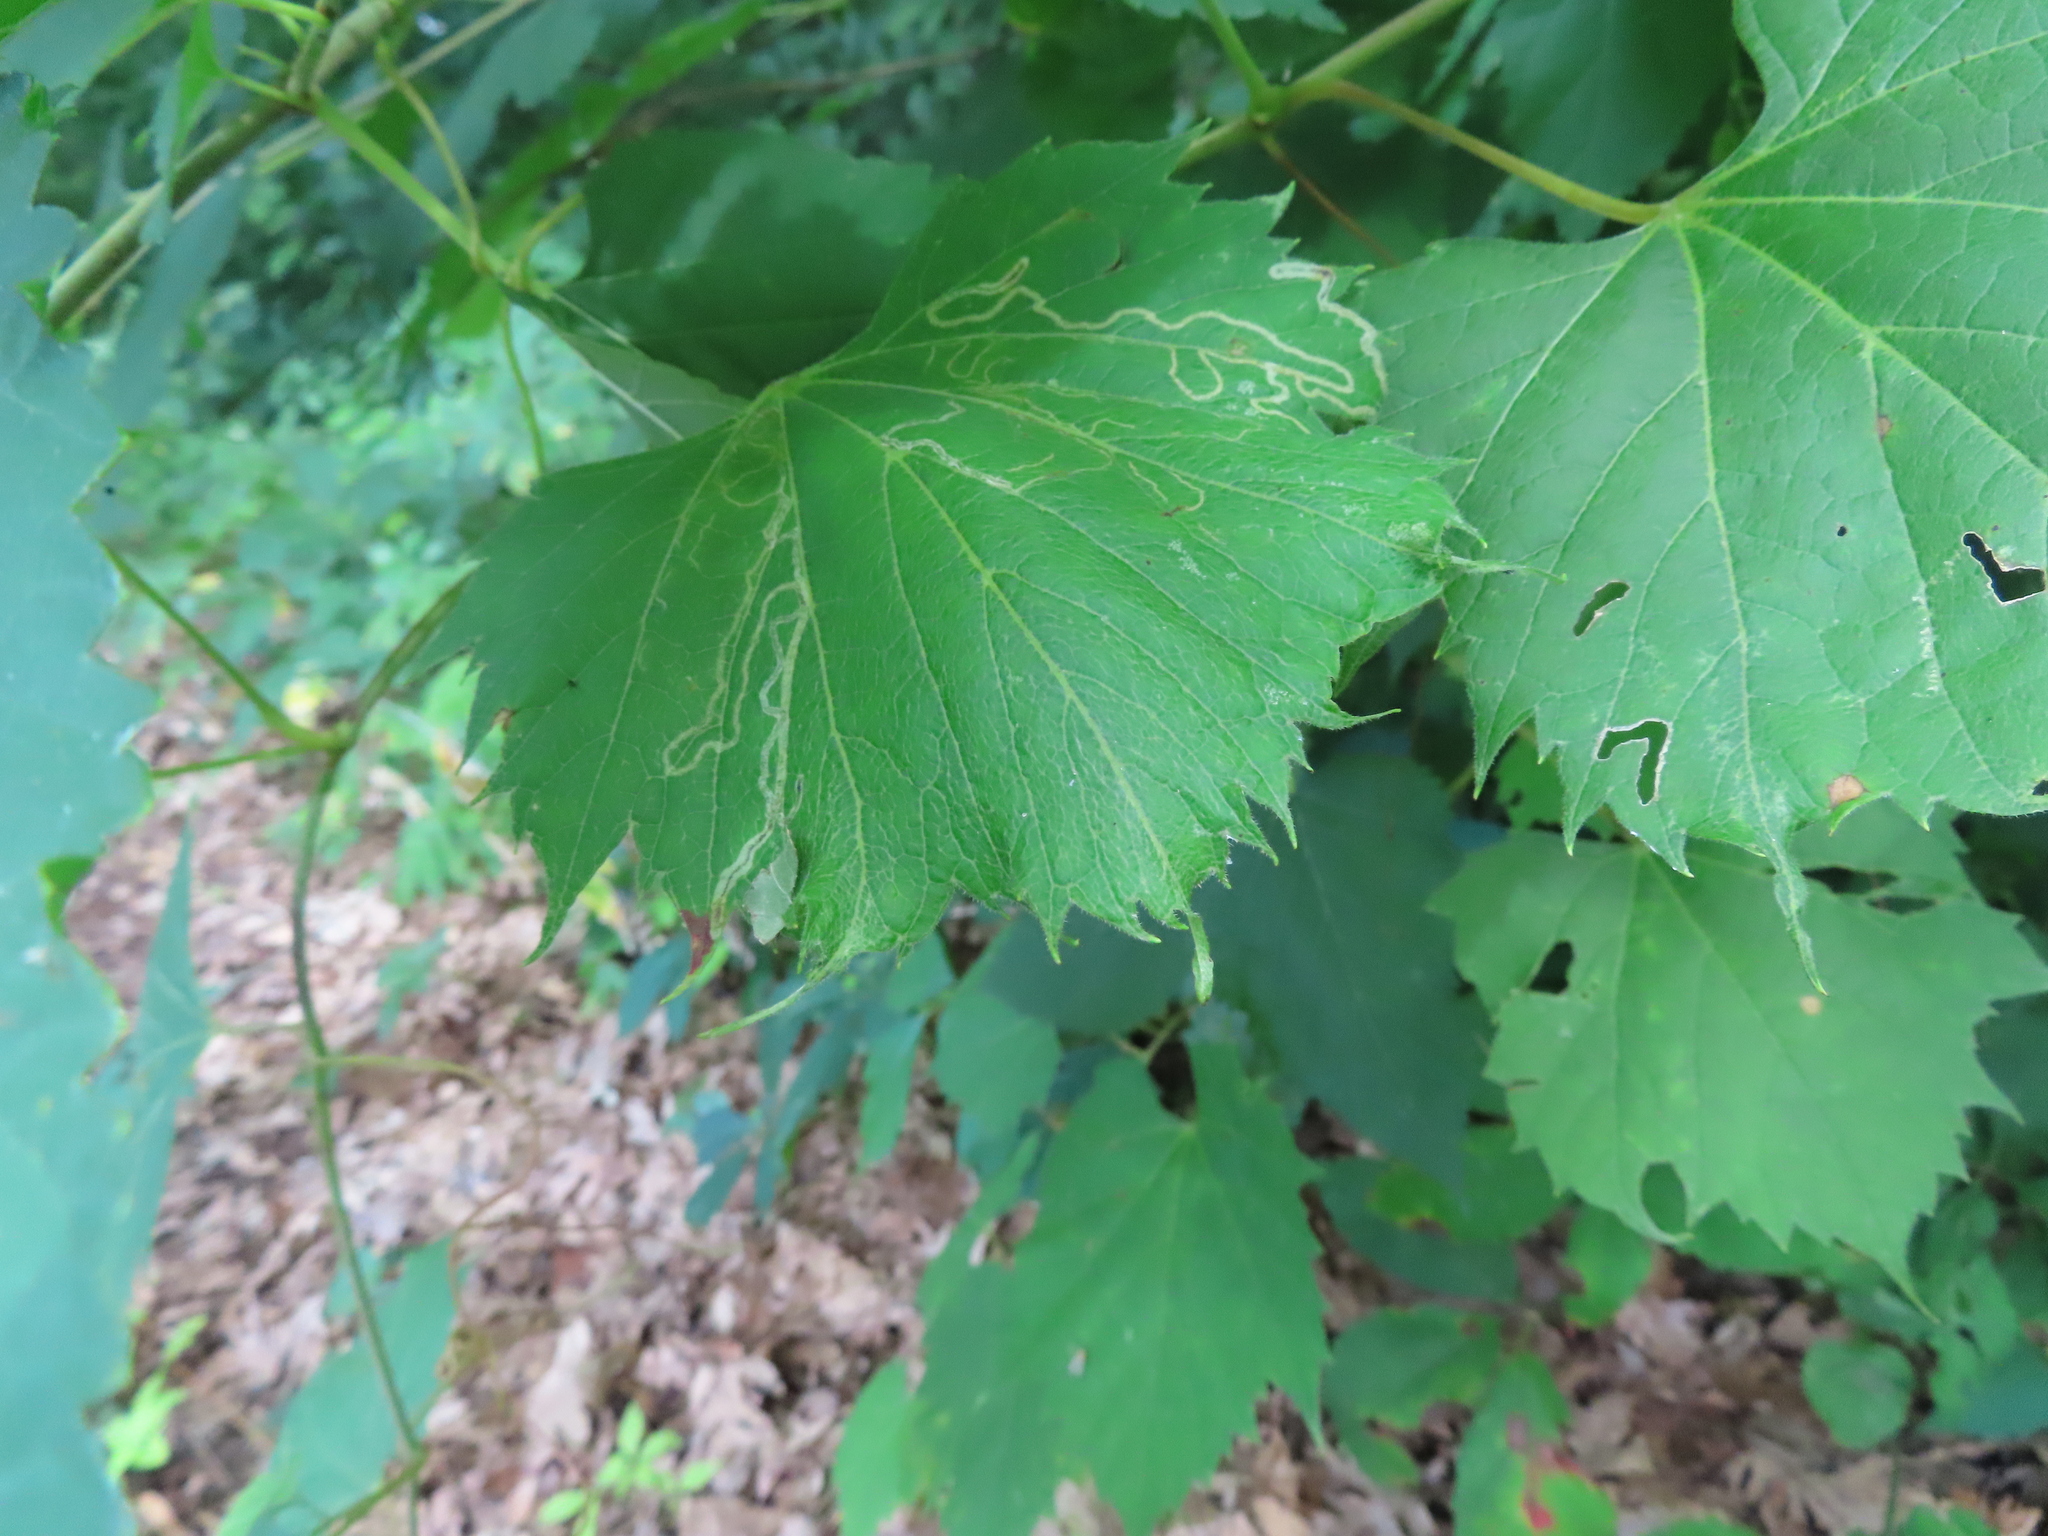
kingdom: Animalia
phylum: Arthropoda
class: Insecta
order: Lepidoptera
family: Gracillariidae
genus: Phyllocnistis
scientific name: Phyllocnistis vitifoliella
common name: Grape leaf-miner moth
